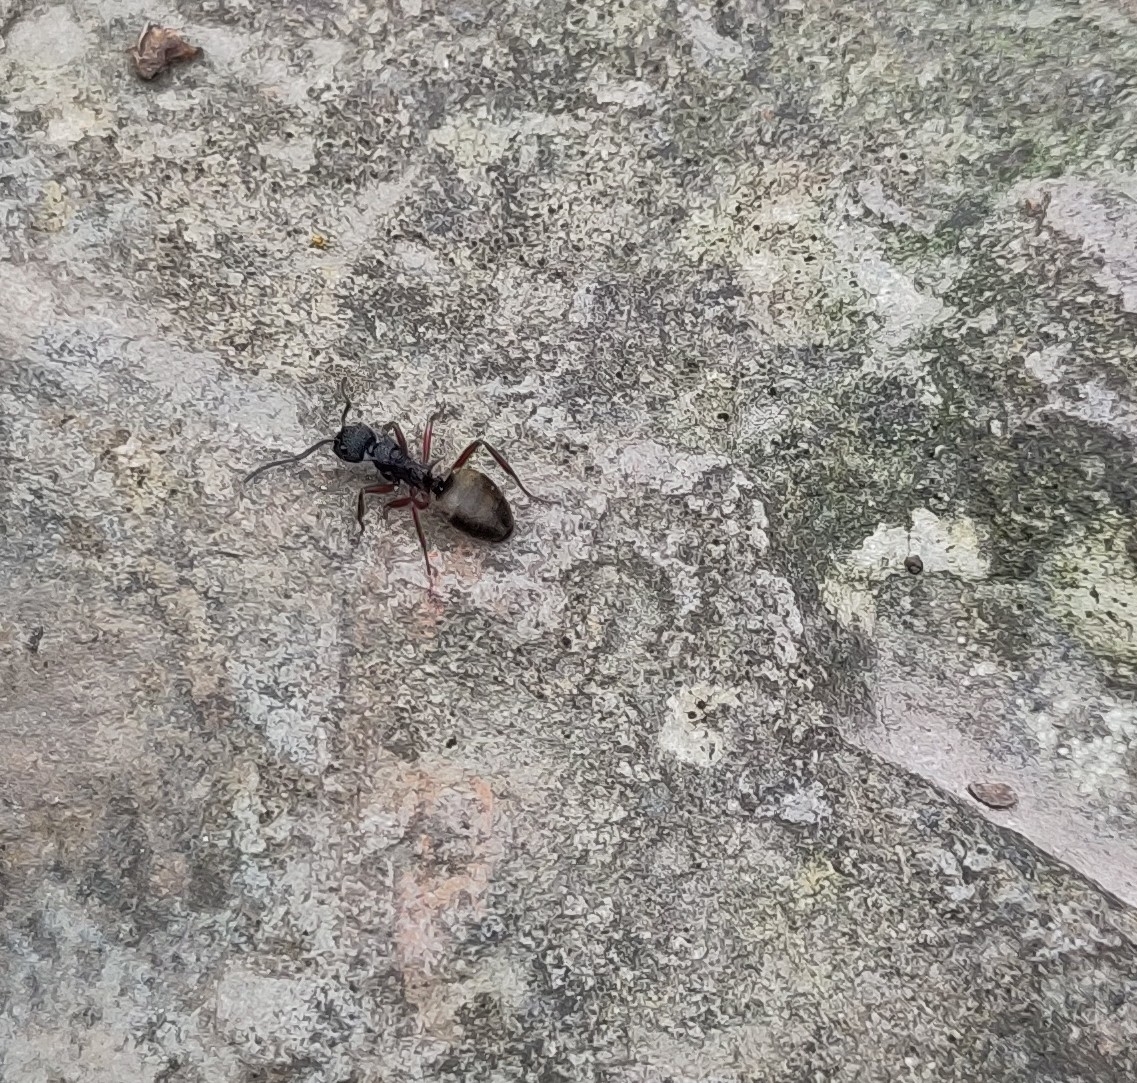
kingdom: Animalia
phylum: Arthropoda
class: Insecta
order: Hymenoptera
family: Formicidae
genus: Dolichoderus
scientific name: Dolichoderus doriae
